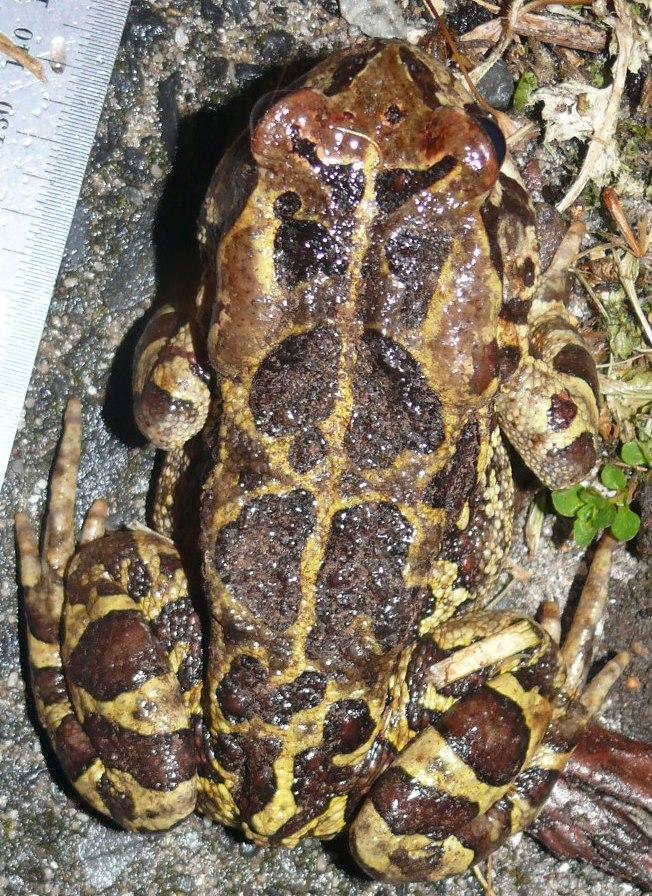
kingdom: Animalia
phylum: Chordata
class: Amphibia
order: Anura
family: Bufonidae
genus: Sclerophrys
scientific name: Sclerophrys pantherina
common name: Panther toad
